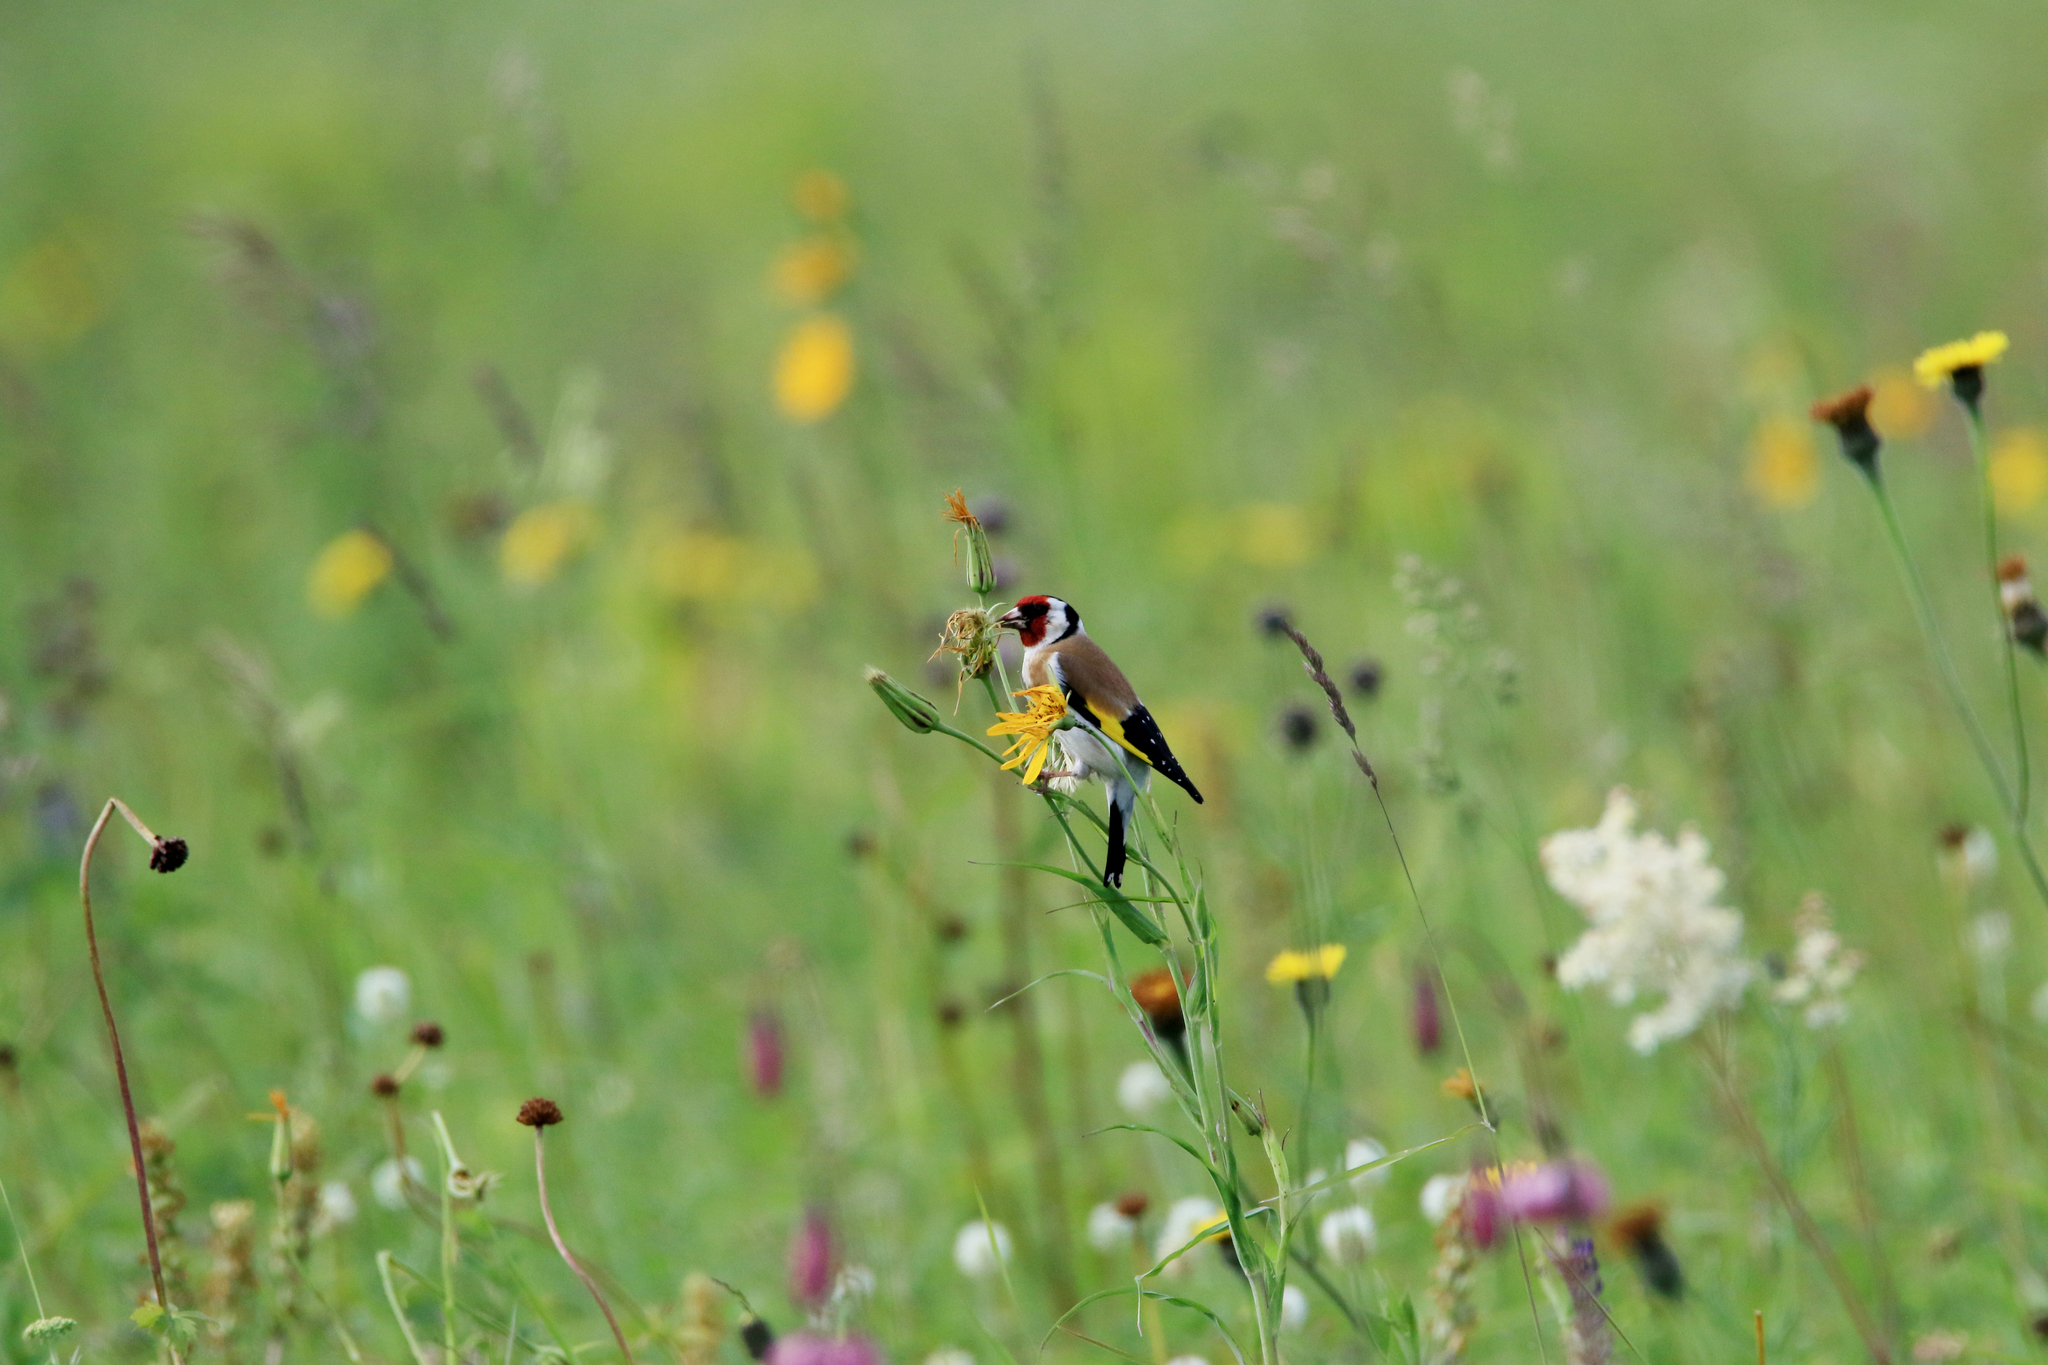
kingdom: Animalia
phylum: Chordata
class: Aves
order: Passeriformes
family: Fringillidae
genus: Carduelis
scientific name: Carduelis carduelis
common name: European goldfinch
